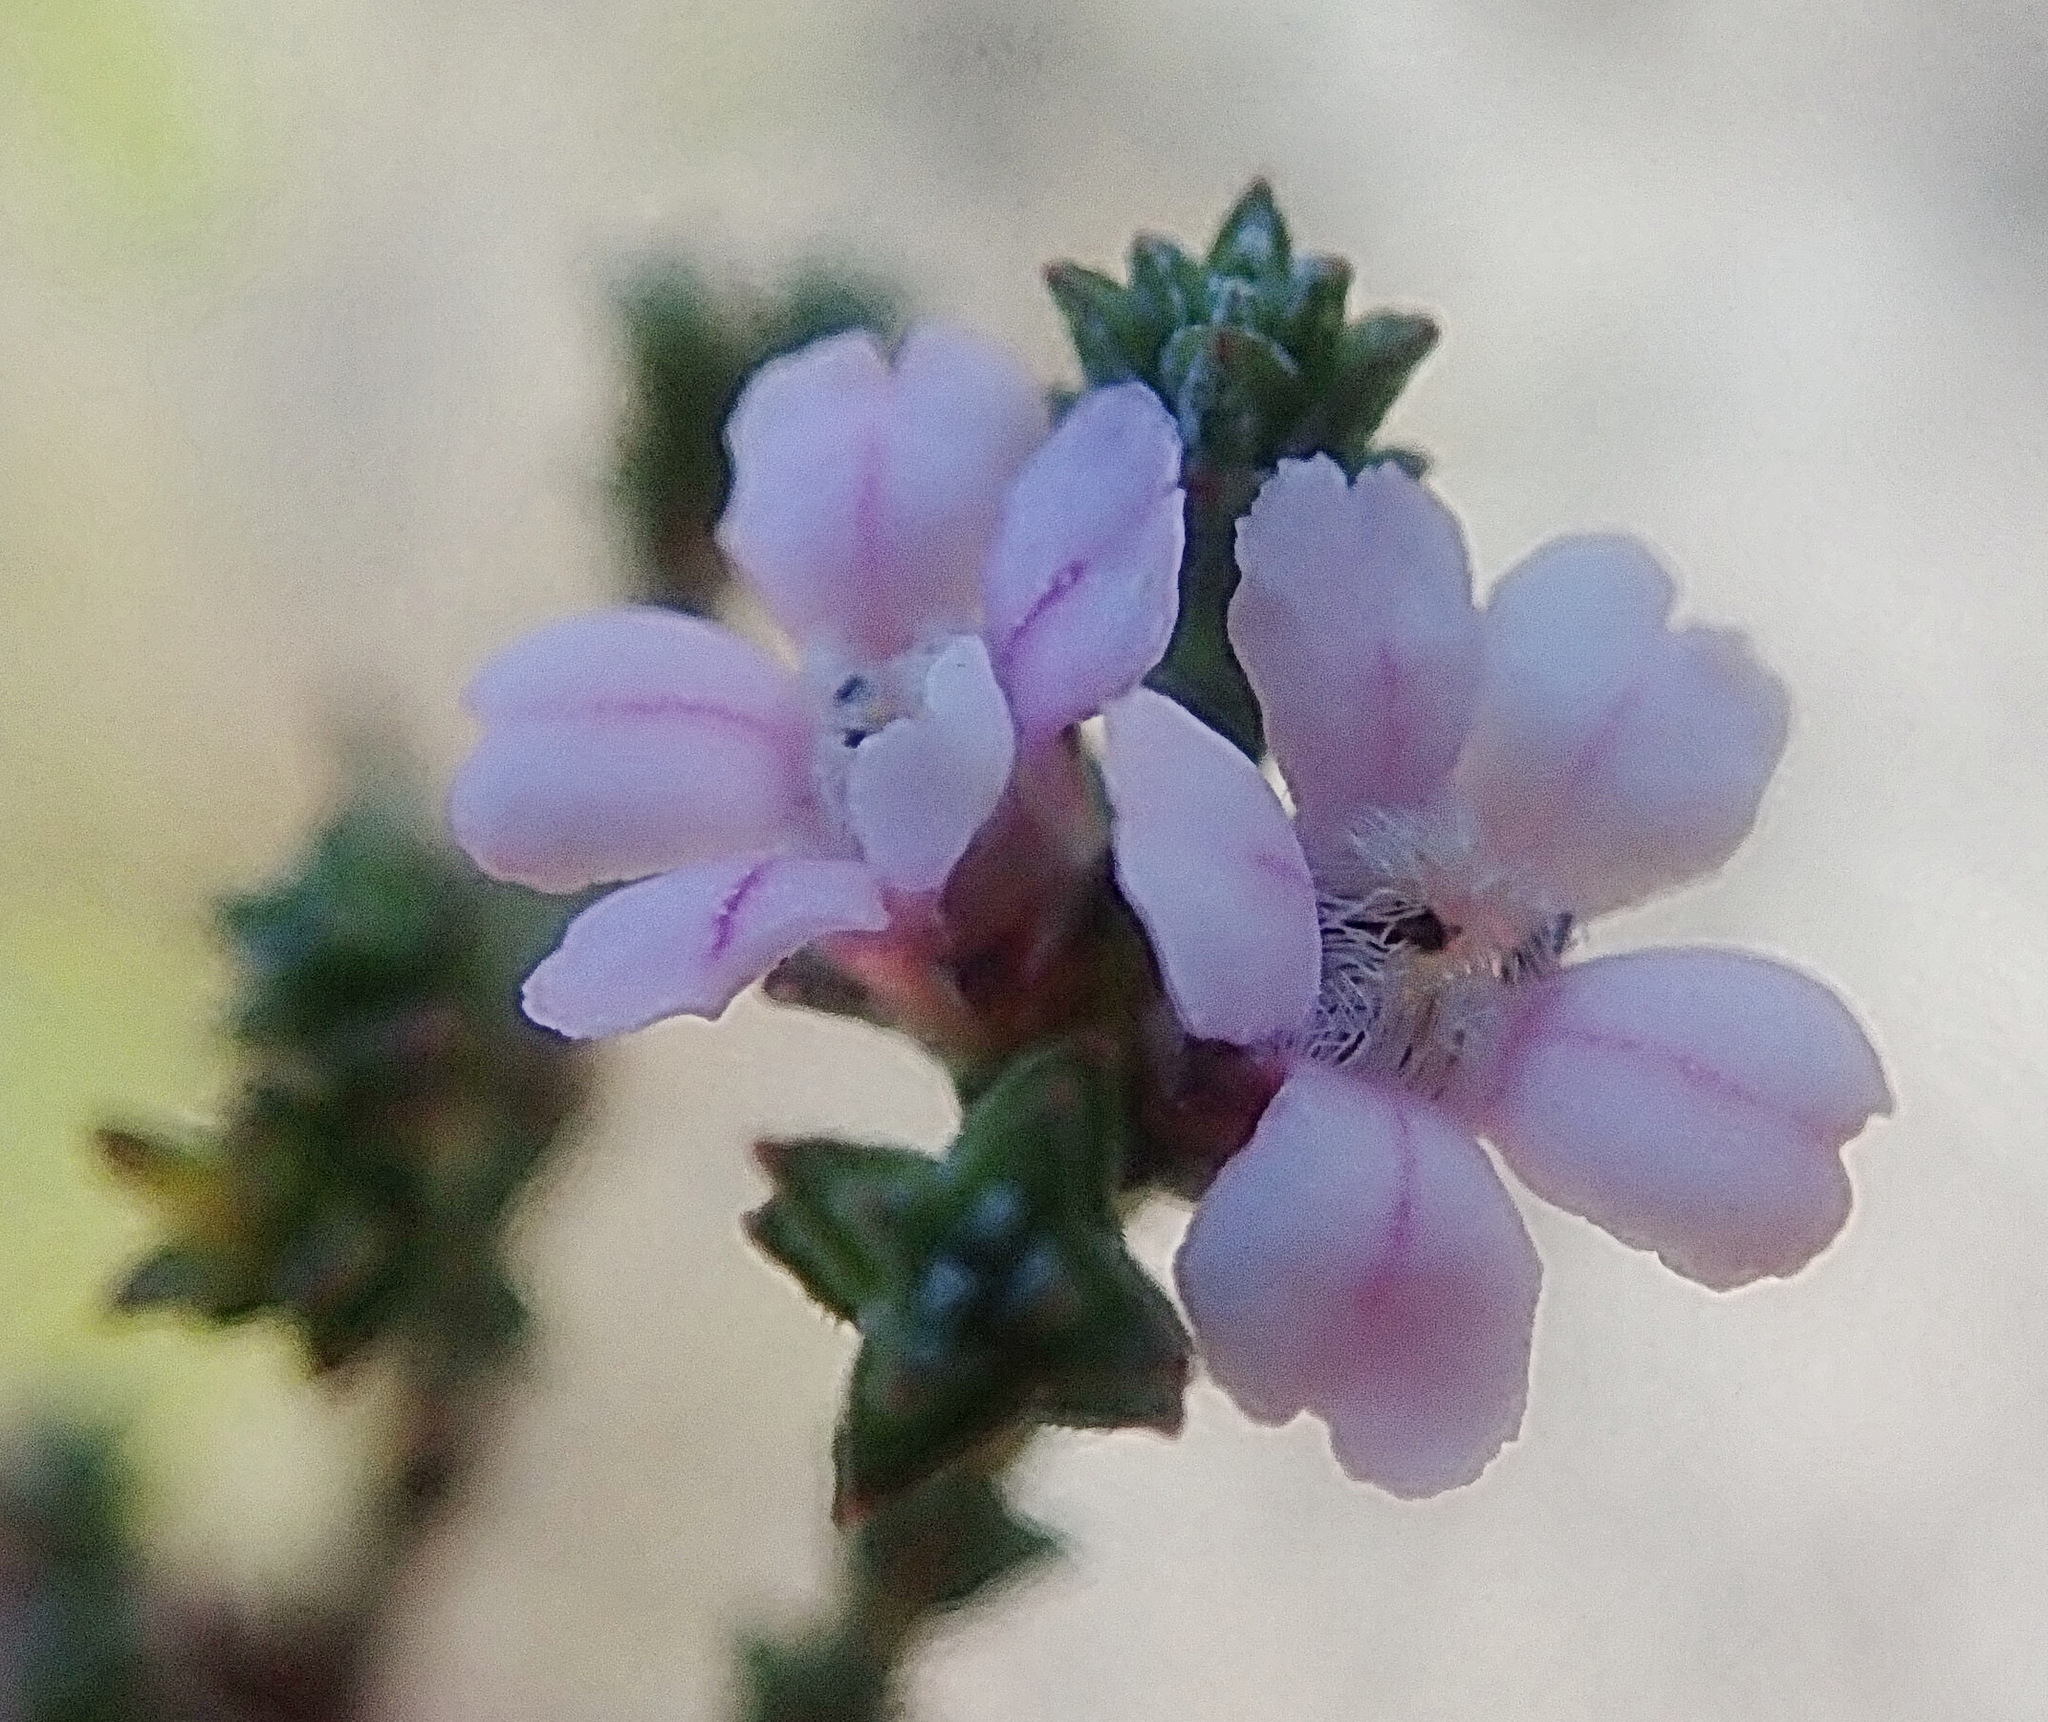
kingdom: Plantae
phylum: Tracheophyta
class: Magnoliopsida
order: Sapindales
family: Rutaceae
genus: Euchaetis
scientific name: Euchaetis albertiniana
